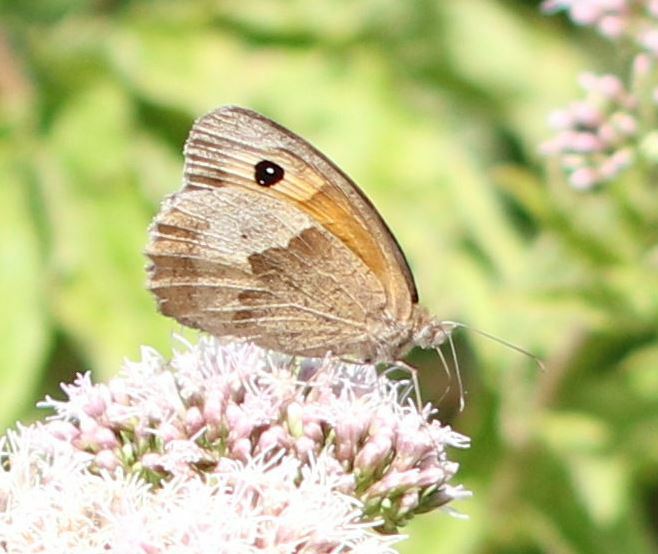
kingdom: Animalia
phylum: Arthropoda
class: Insecta
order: Lepidoptera
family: Nymphalidae
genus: Maniola
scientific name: Maniola jurtina
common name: Meadow brown
